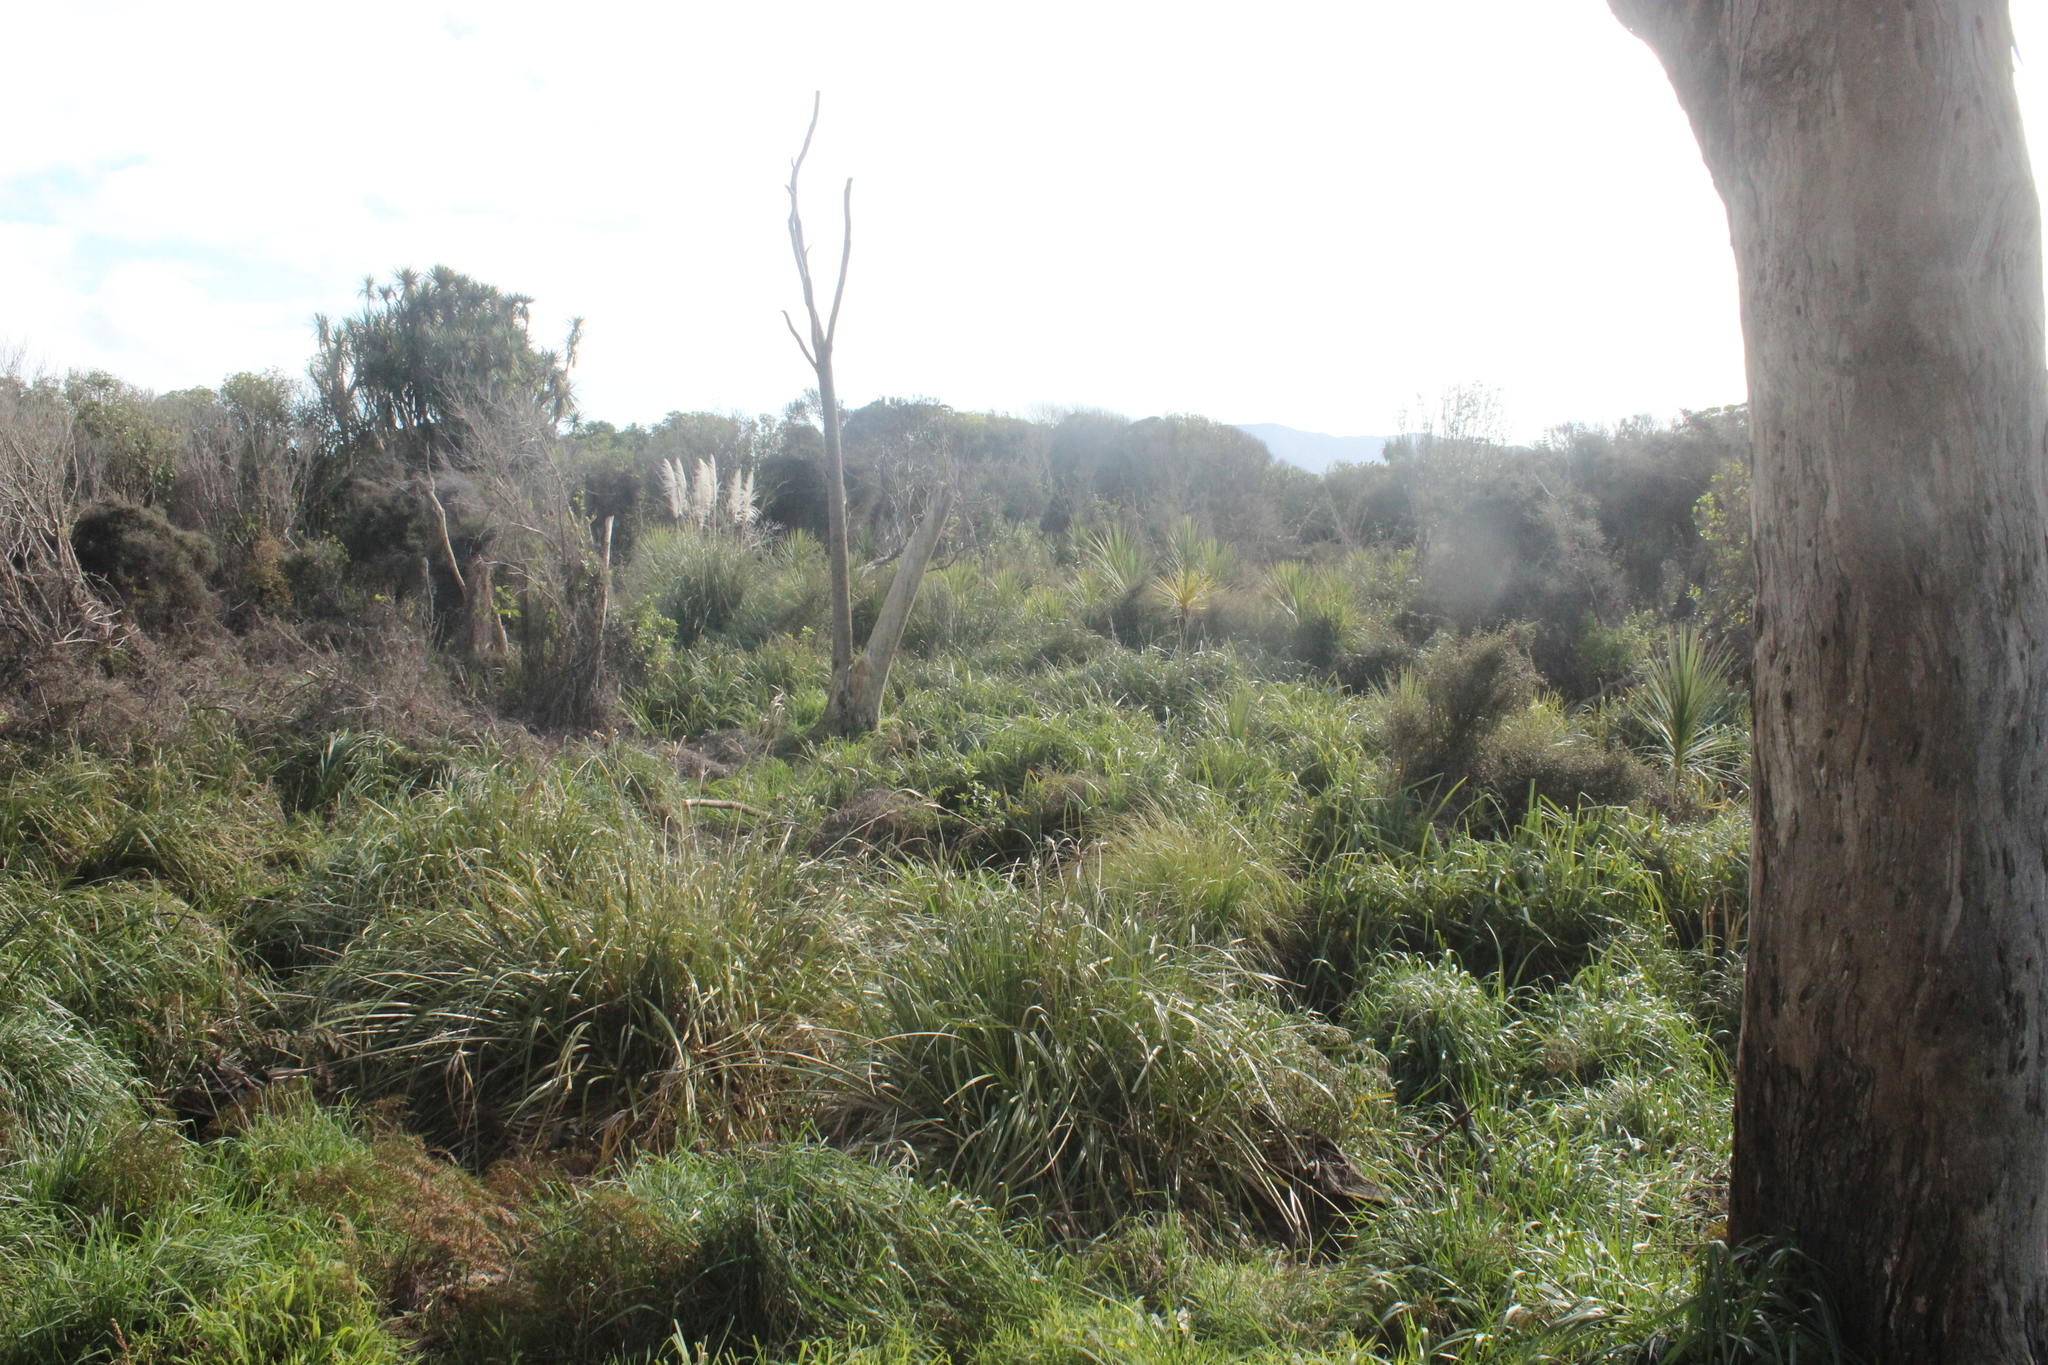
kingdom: Plantae
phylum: Tracheophyta
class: Liliopsida
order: Poales
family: Cyperaceae
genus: Cyperus
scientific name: Cyperus ustulatus
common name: Giant umbrella-sedge
